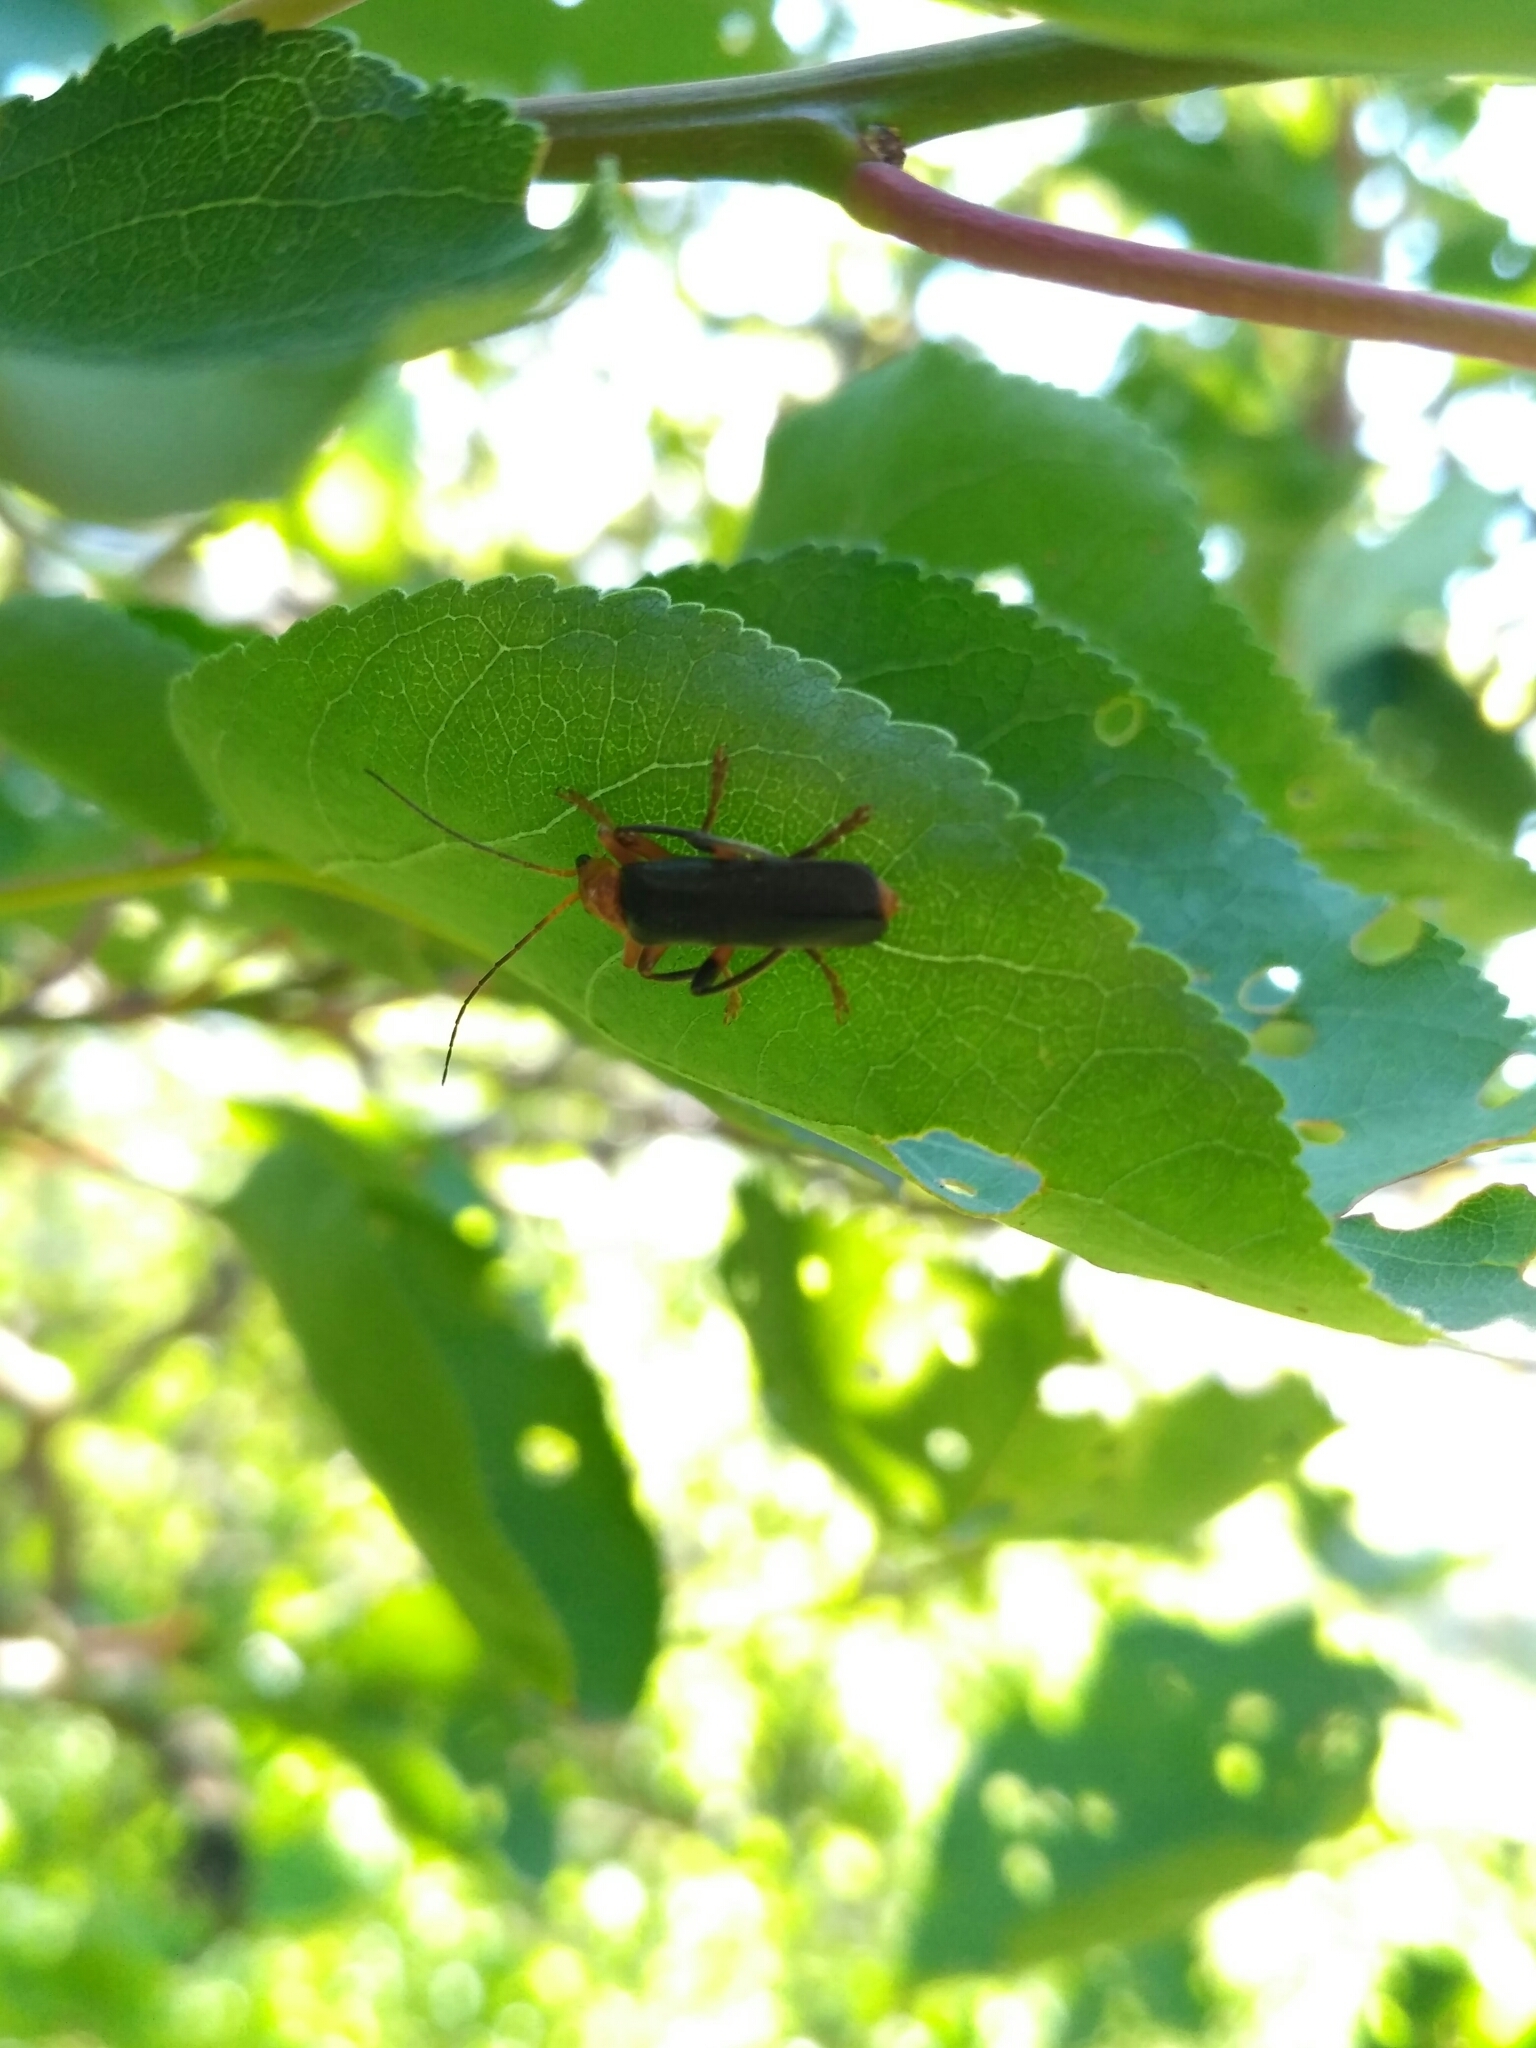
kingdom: Animalia
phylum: Arthropoda
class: Insecta
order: Coleoptera
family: Cantharidae
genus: Cantharis
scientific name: Cantharis livida
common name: Livid soldier beetle
